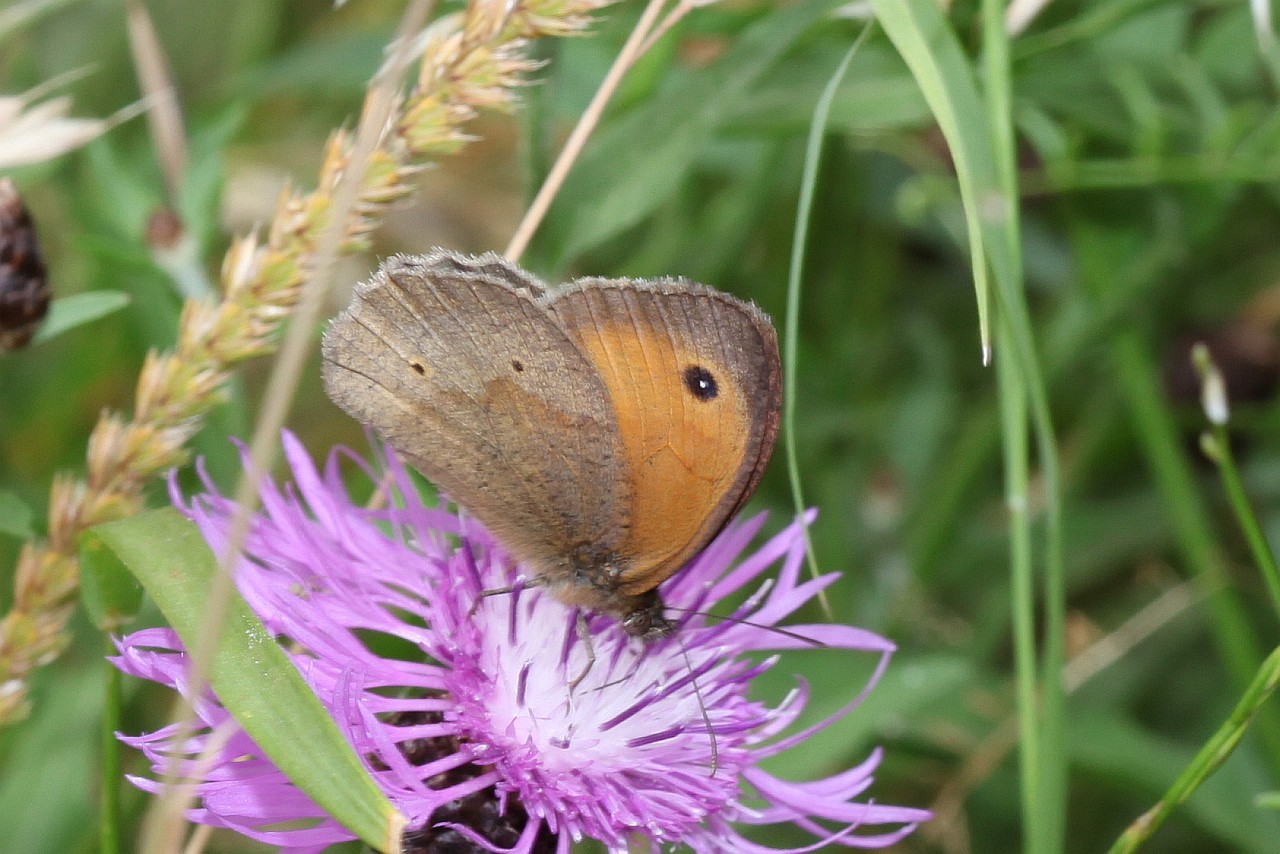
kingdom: Animalia
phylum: Arthropoda
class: Insecta
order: Lepidoptera
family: Nymphalidae
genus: Maniola
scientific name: Maniola jurtina
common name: Meadow brown
